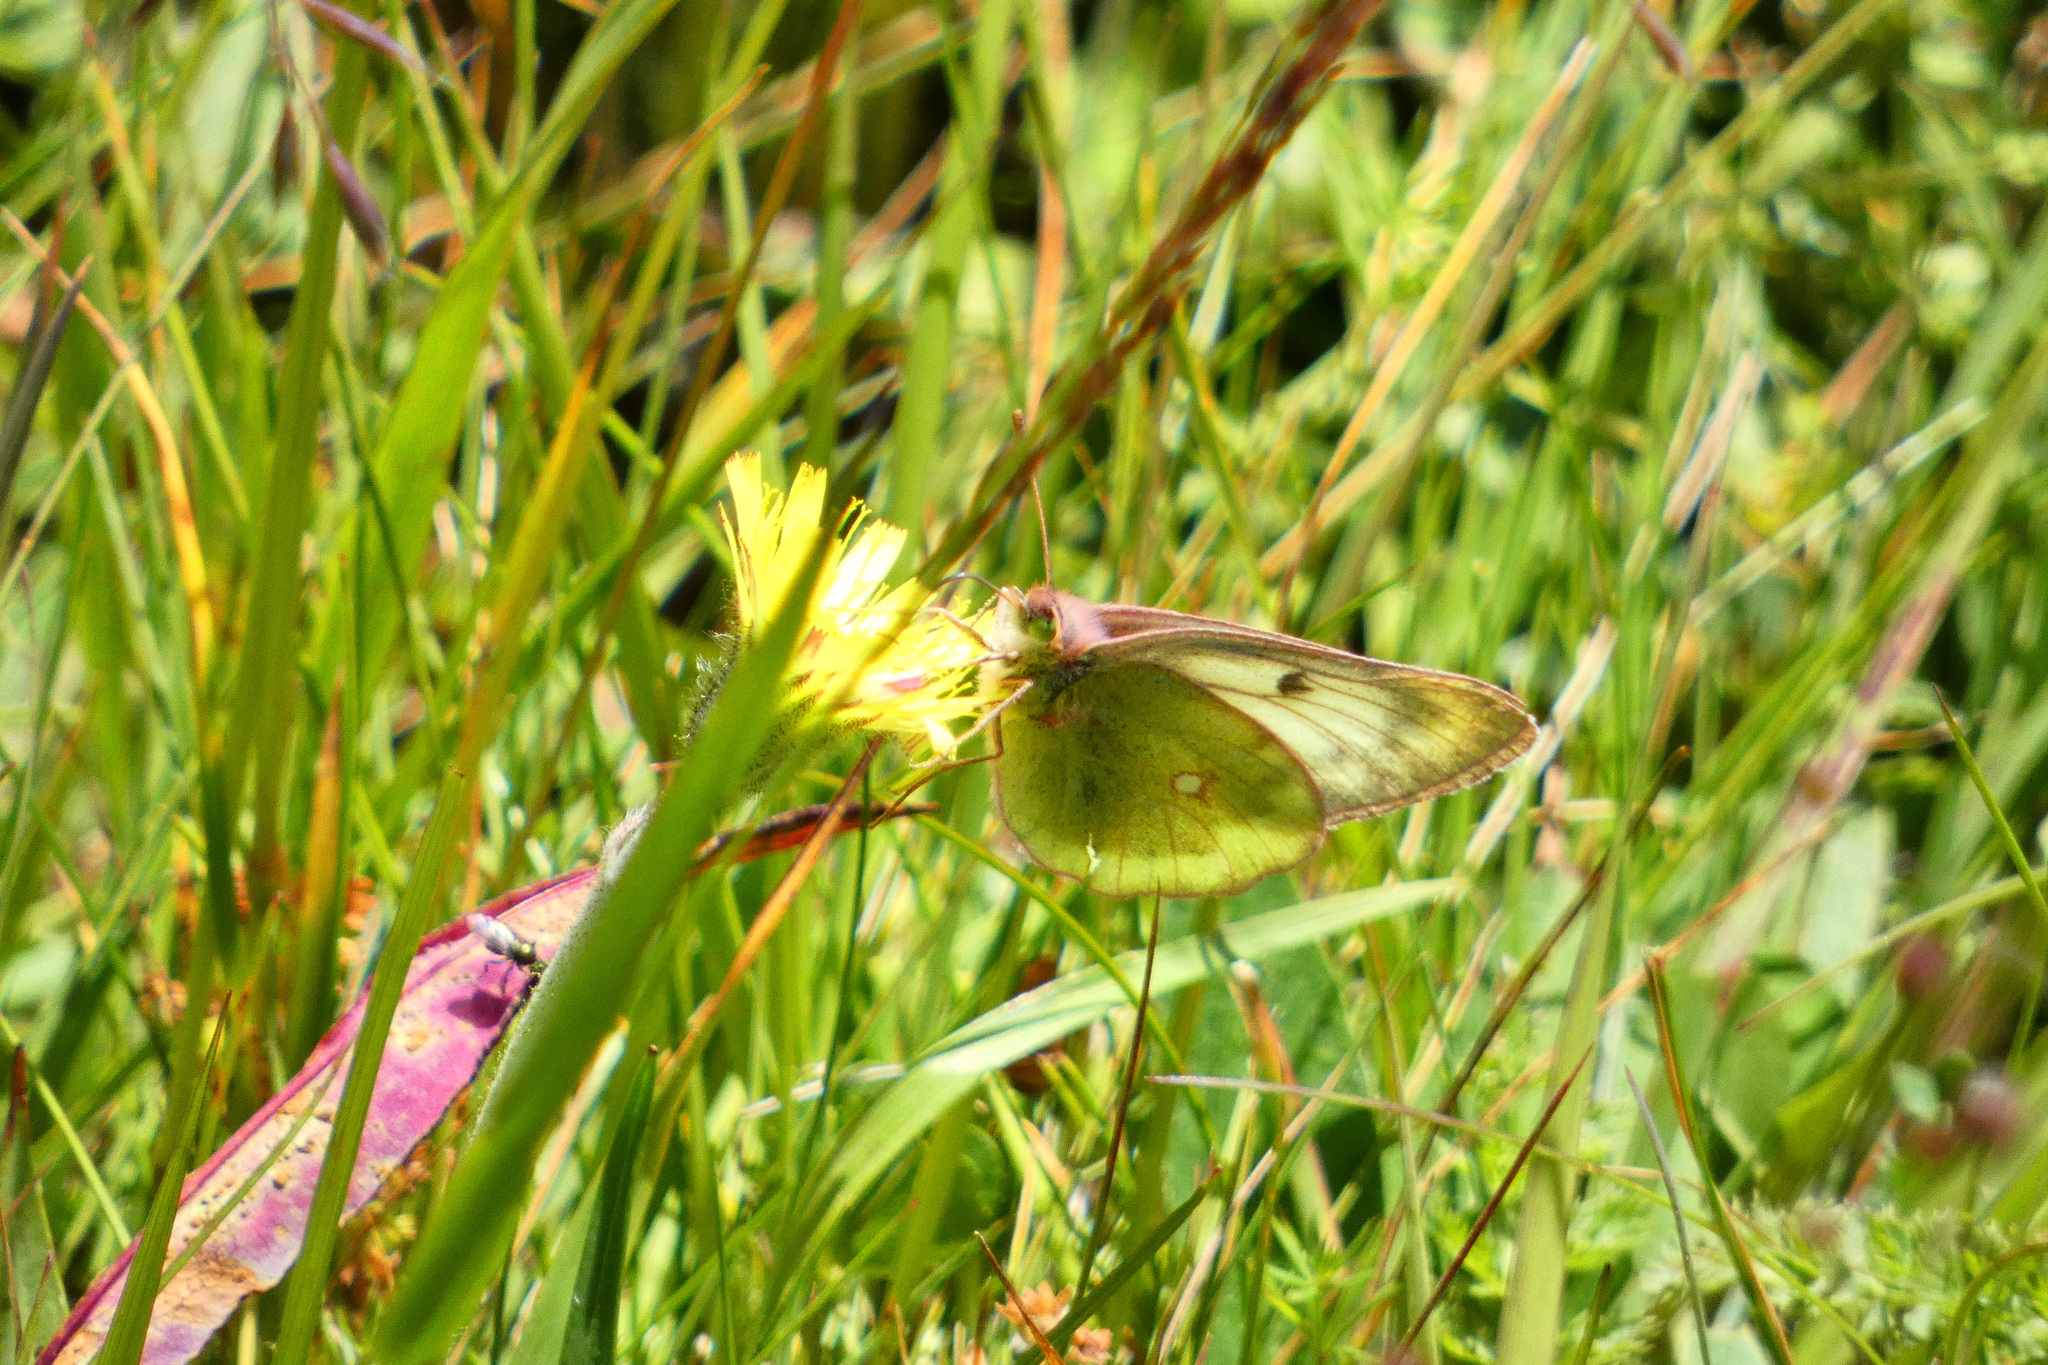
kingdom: Animalia
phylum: Arthropoda
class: Insecta
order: Lepidoptera
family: Pieridae
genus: Colias
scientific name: Colias phicomone
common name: Mountain clouded yellow
